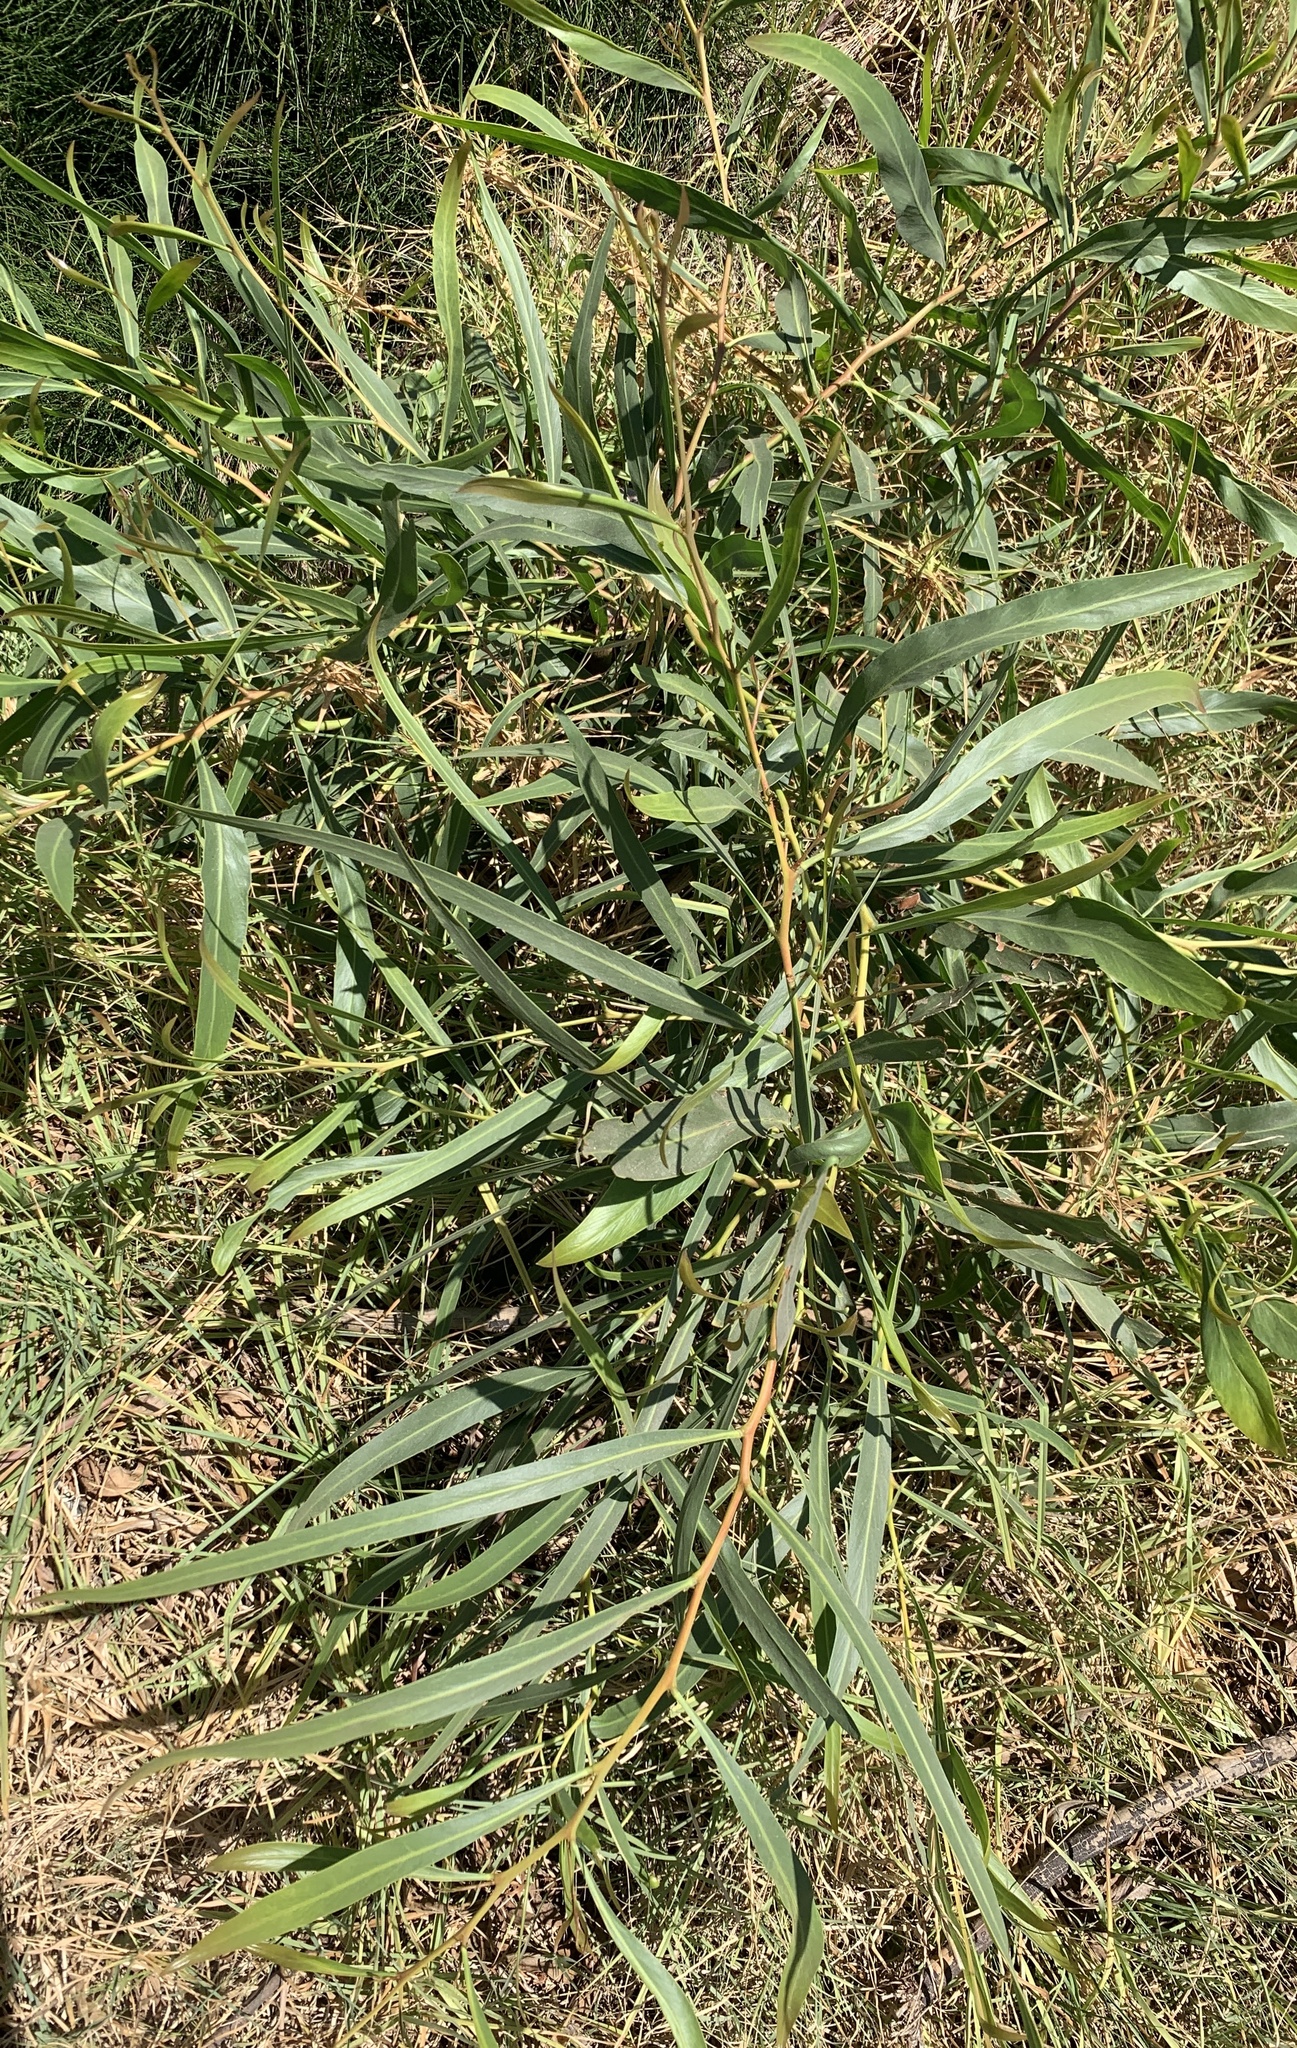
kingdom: Plantae
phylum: Tracheophyta
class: Magnoliopsida
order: Fabales
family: Fabaceae
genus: Acacia
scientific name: Acacia saligna
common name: Orange wattle
